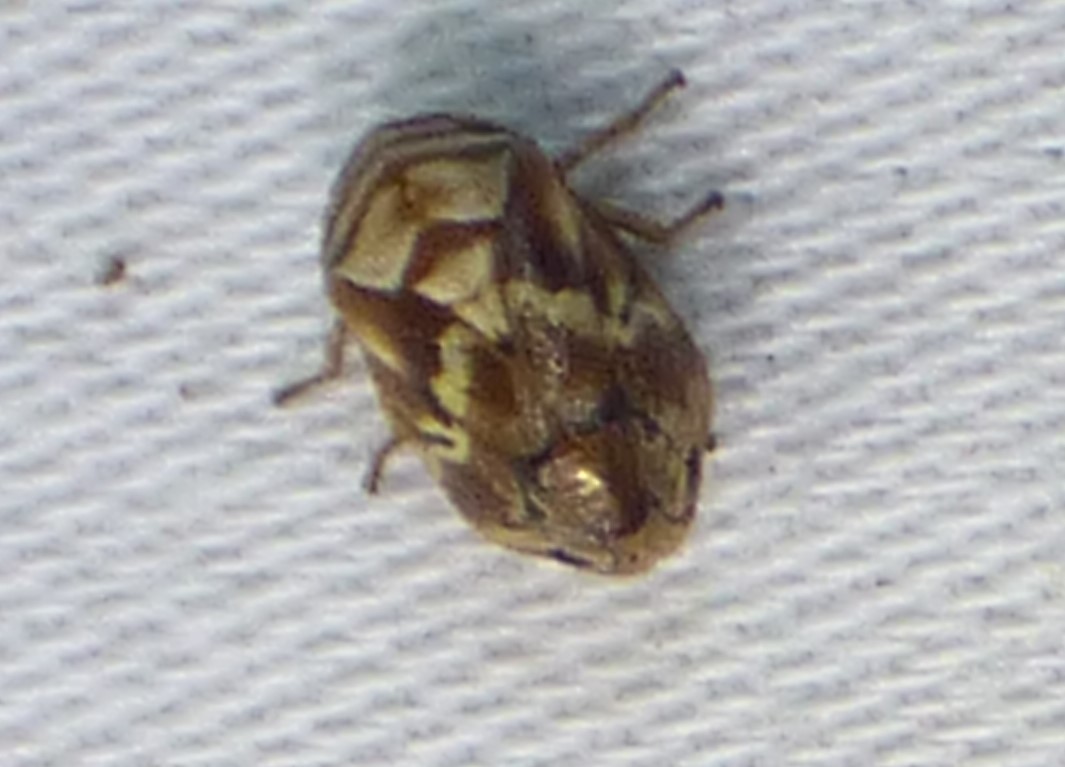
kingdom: Animalia
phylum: Arthropoda
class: Insecta
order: Hemiptera
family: Clastopteridae
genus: Clastoptera
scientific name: Clastoptera obtusa
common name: Alder spittlebug
